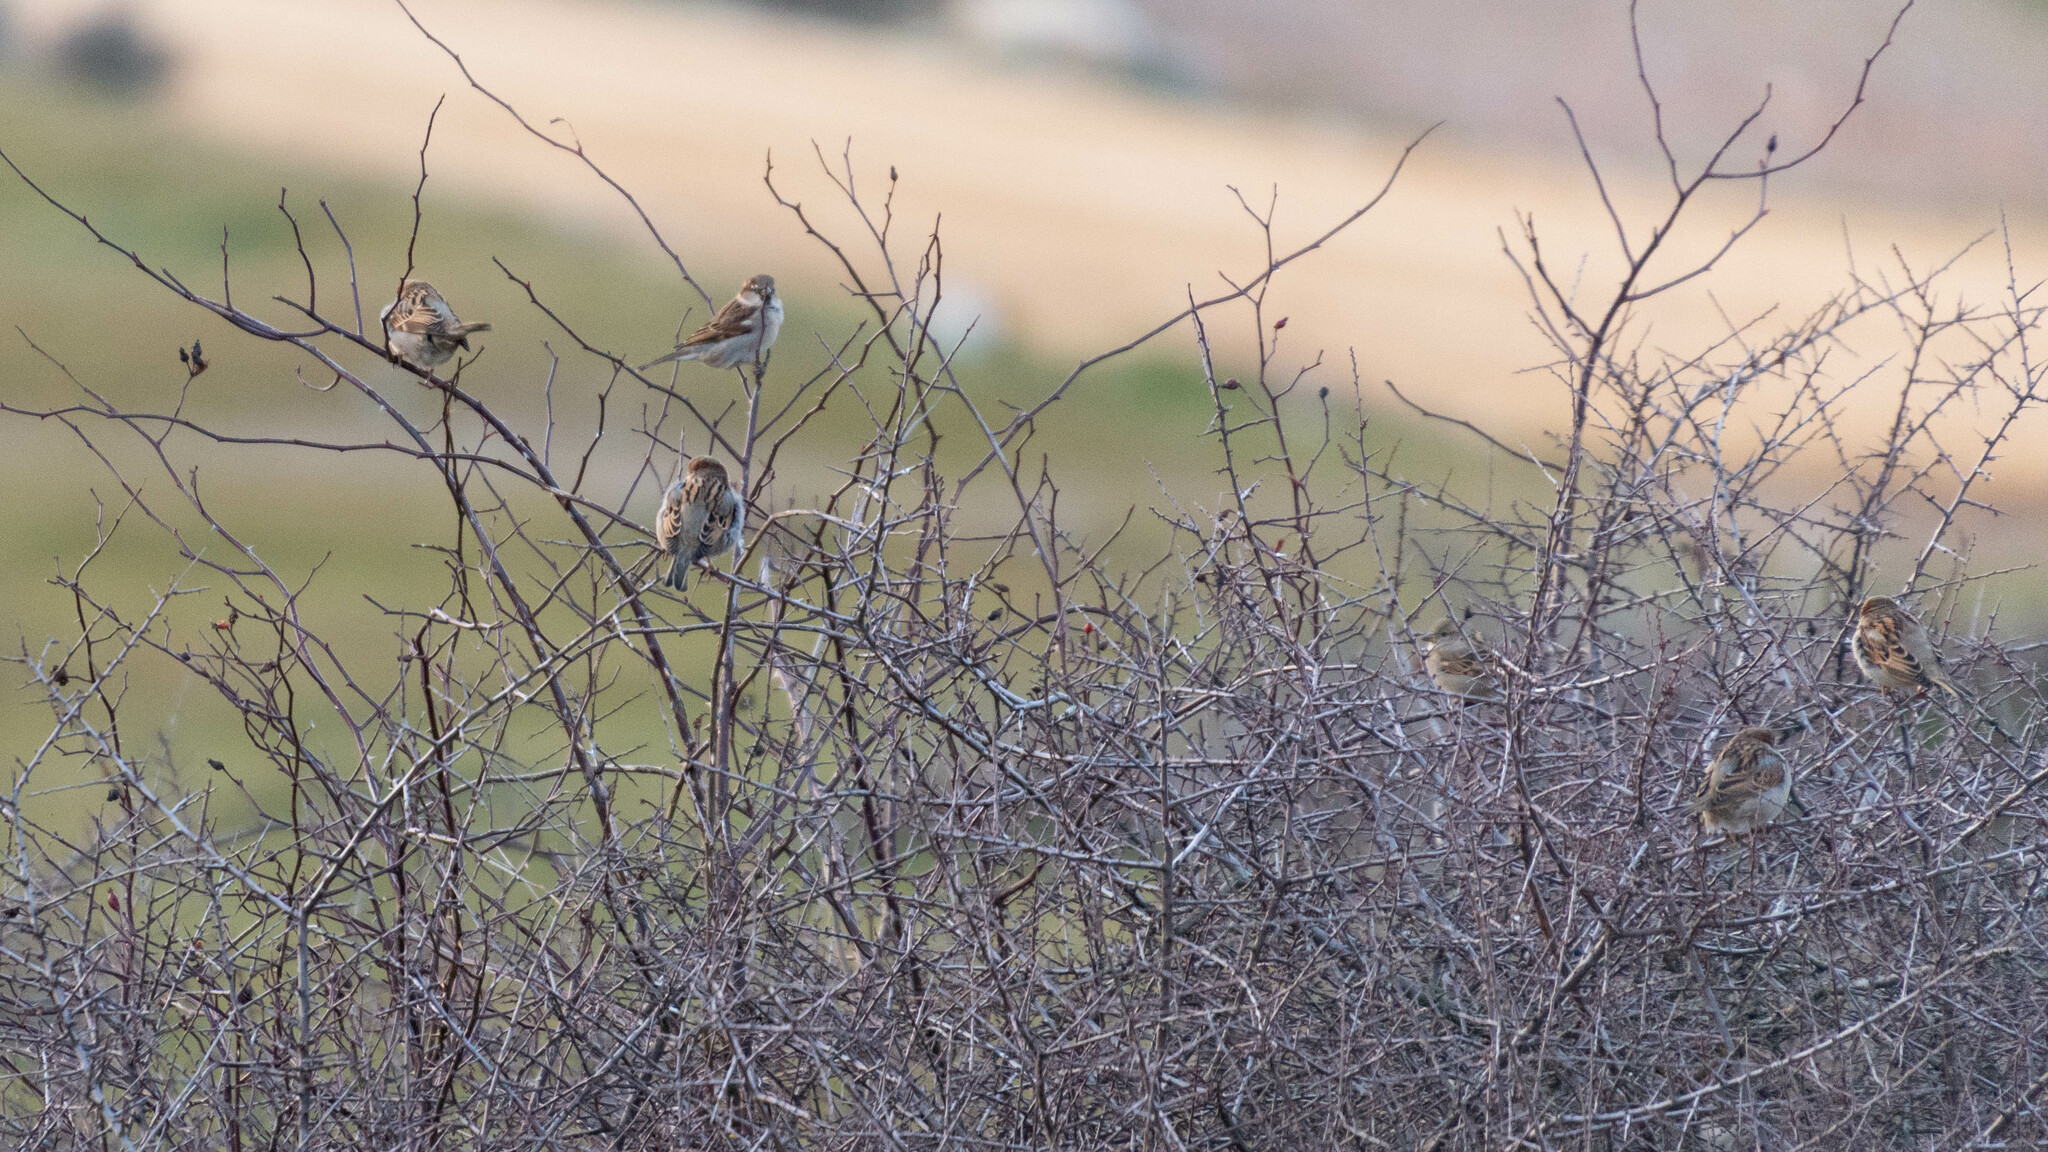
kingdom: Animalia
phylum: Chordata
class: Aves
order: Passeriformes
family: Passeridae
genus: Passer
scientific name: Passer domesticus
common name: House sparrow
